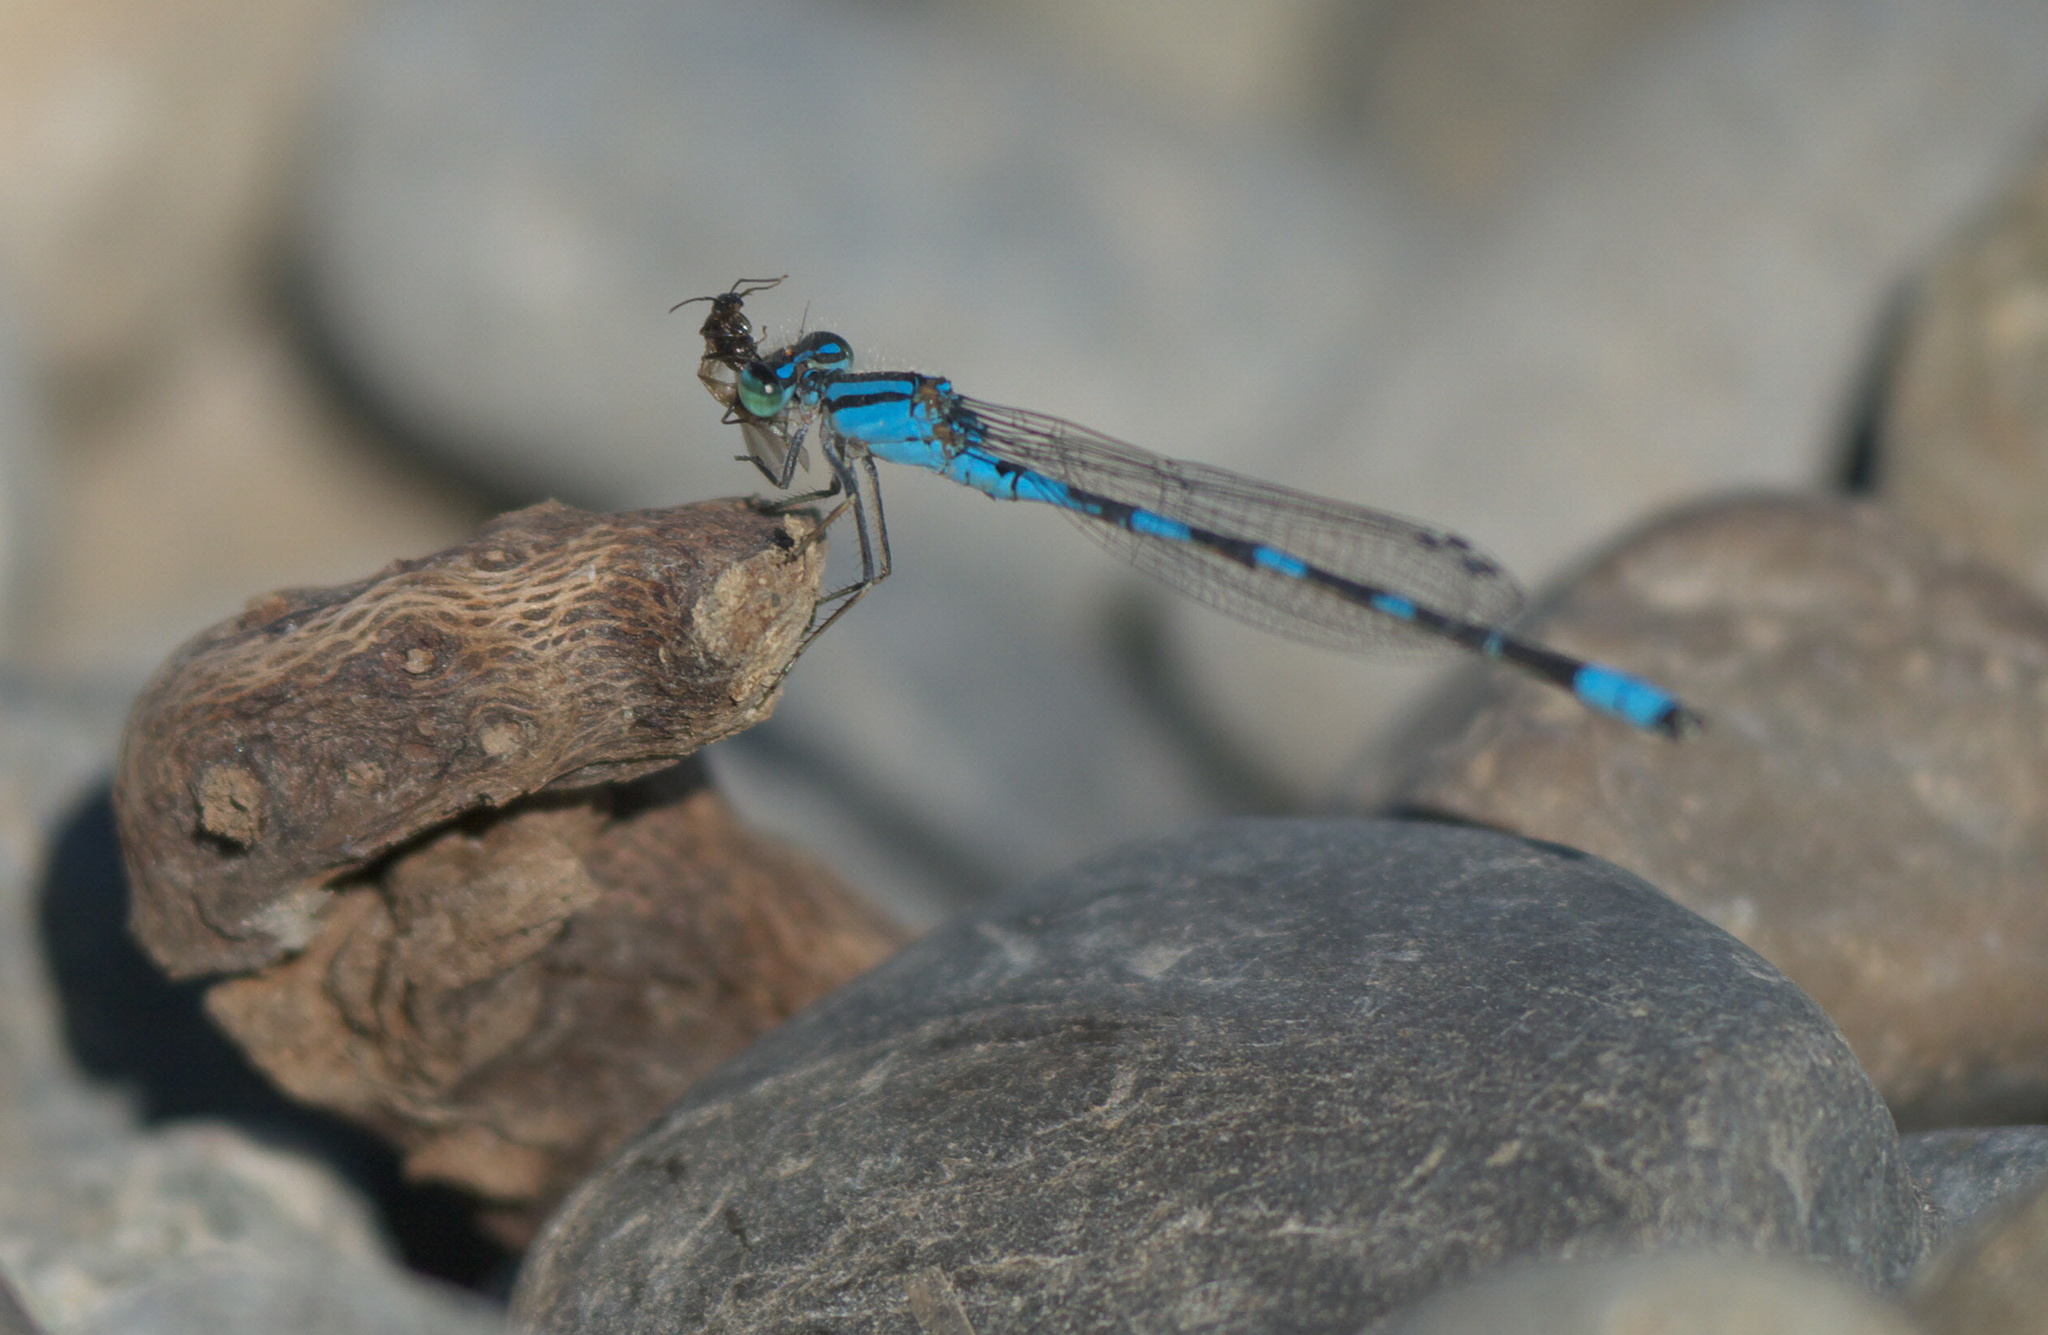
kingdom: Animalia
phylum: Arthropoda
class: Insecta
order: Odonata
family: Coenagrionidae
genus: Enallagma
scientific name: Enallagma carunculatum
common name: Tule bluet
